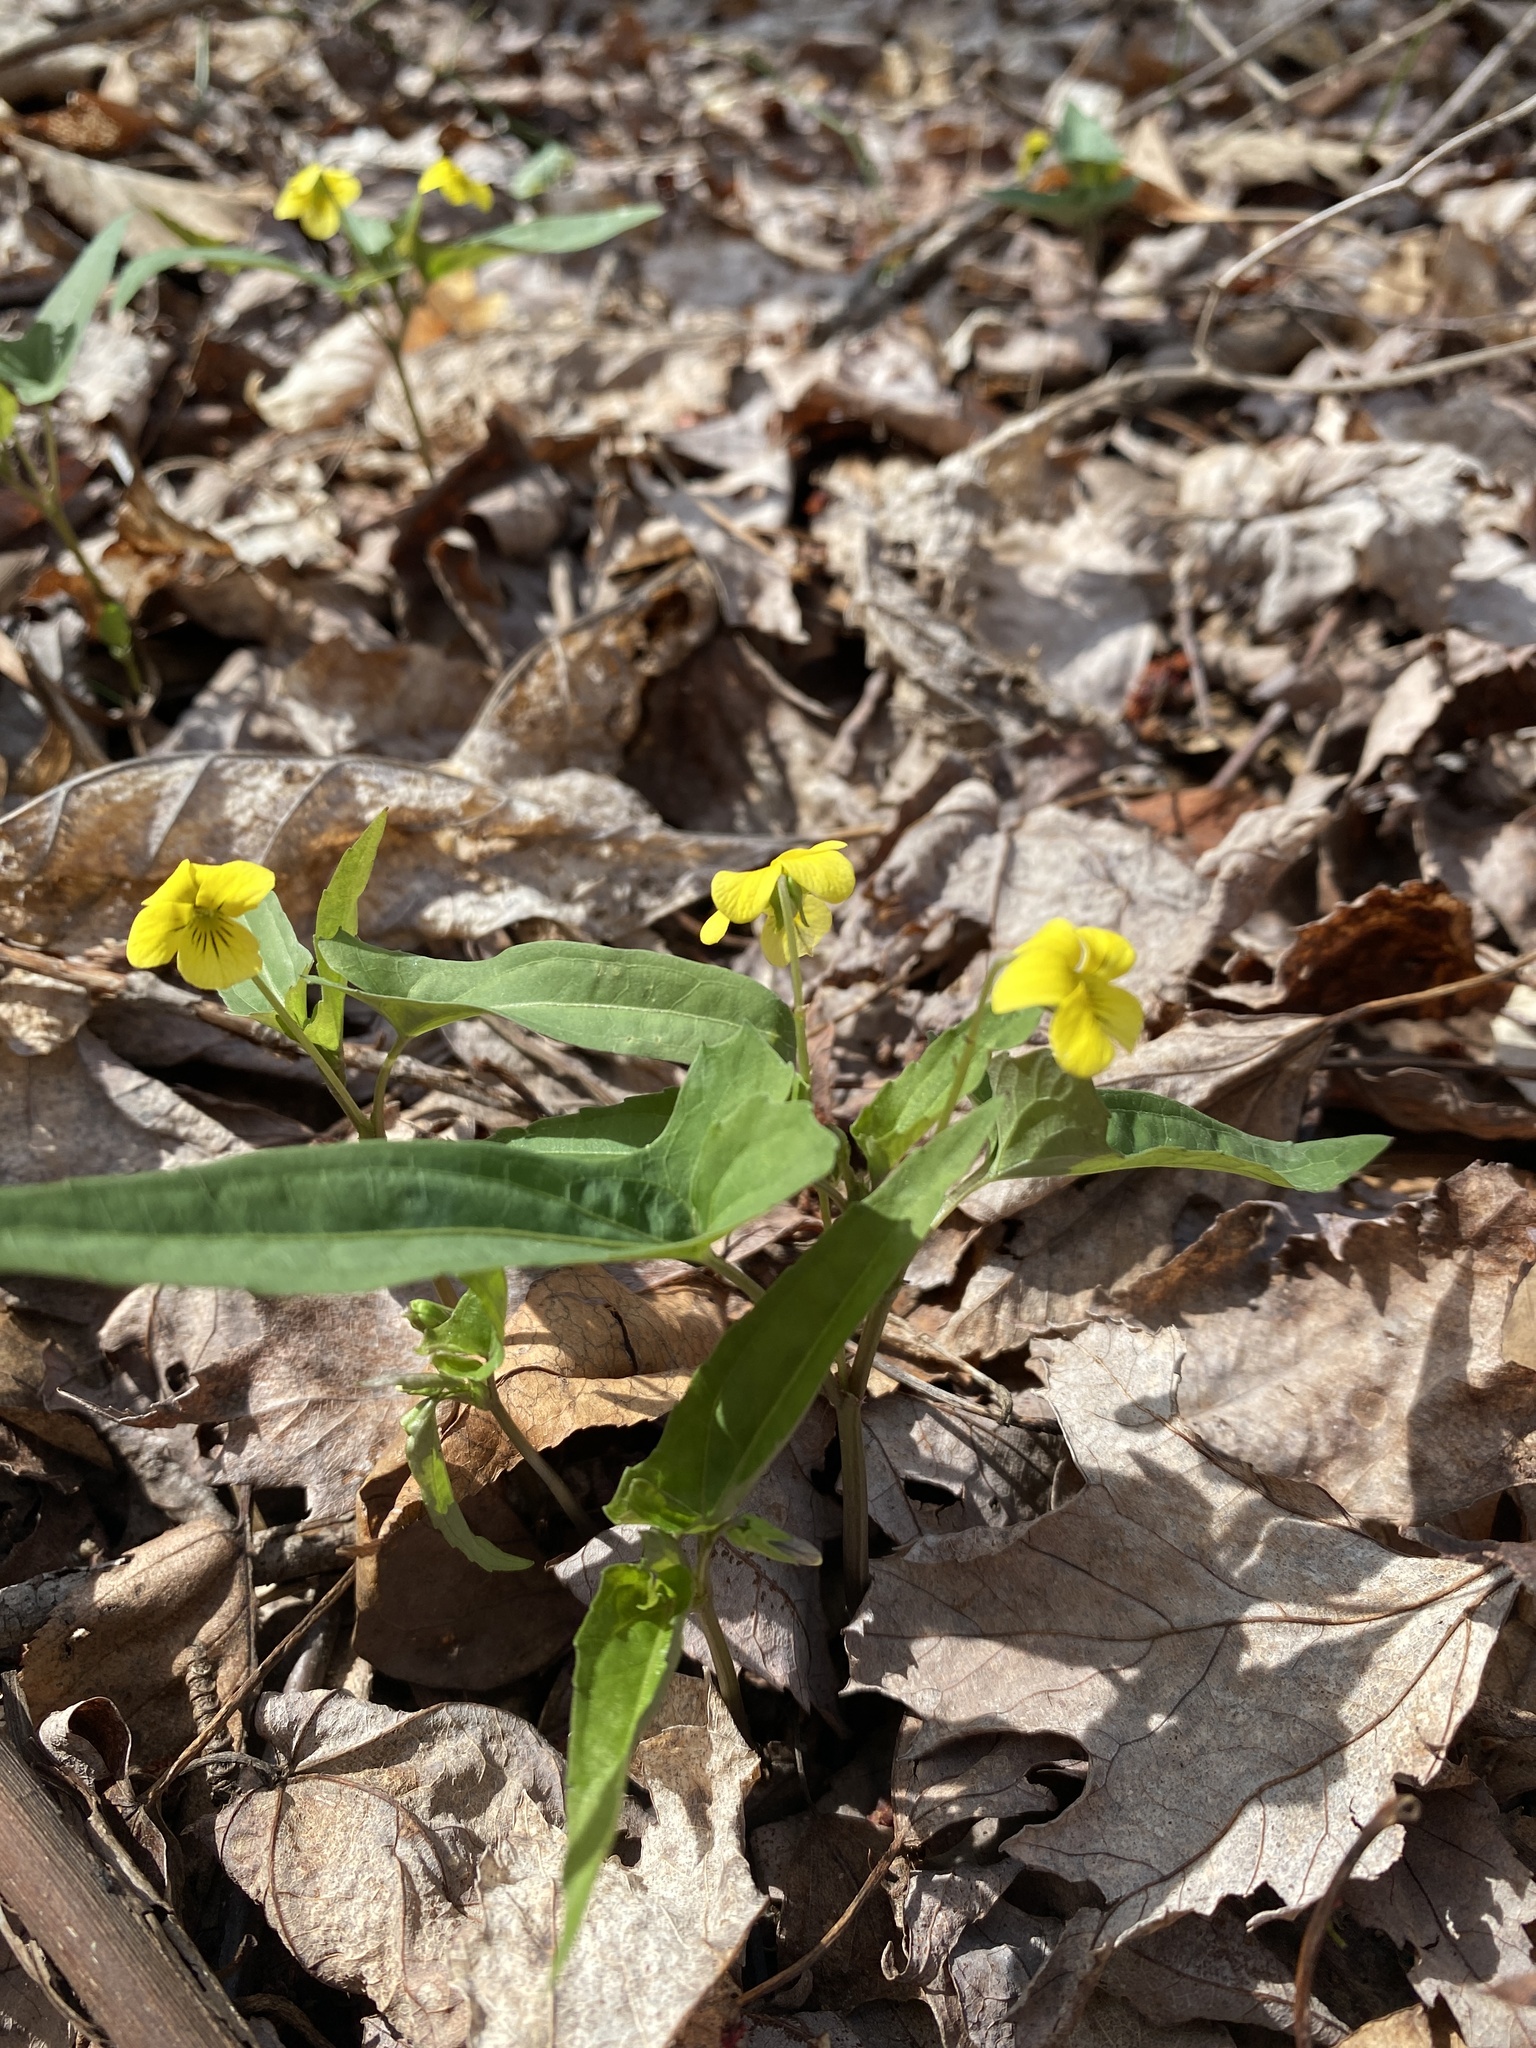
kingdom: Plantae
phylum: Tracheophyta
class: Magnoliopsida
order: Malpighiales
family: Violaceae
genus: Viola
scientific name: Viola hastata
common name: Spear-leaf violet
